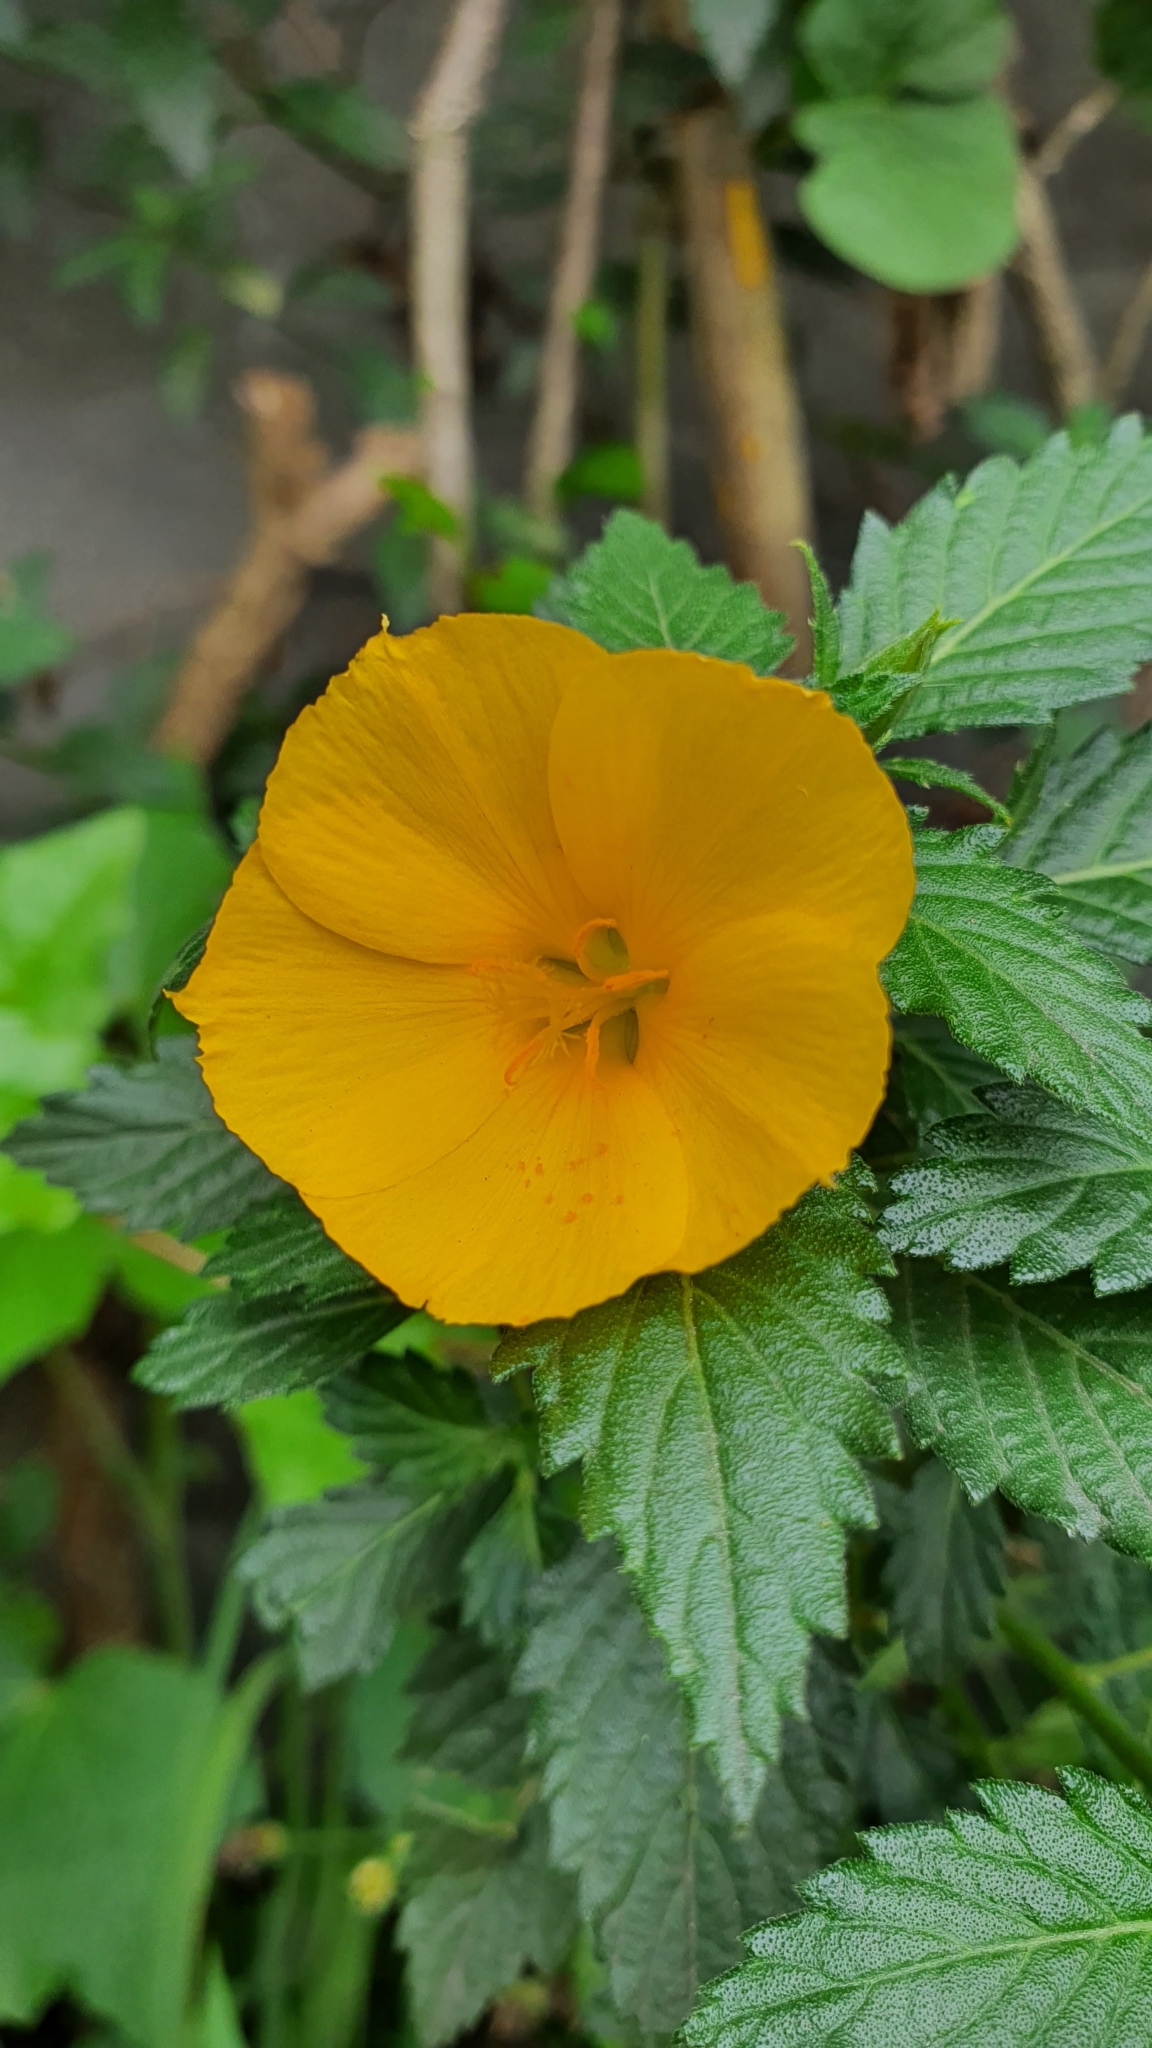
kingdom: Plantae
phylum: Tracheophyta
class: Magnoliopsida
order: Malpighiales
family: Turneraceae
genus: Turnera
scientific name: Turnera ulmifolia
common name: Ramgoat dashalong
